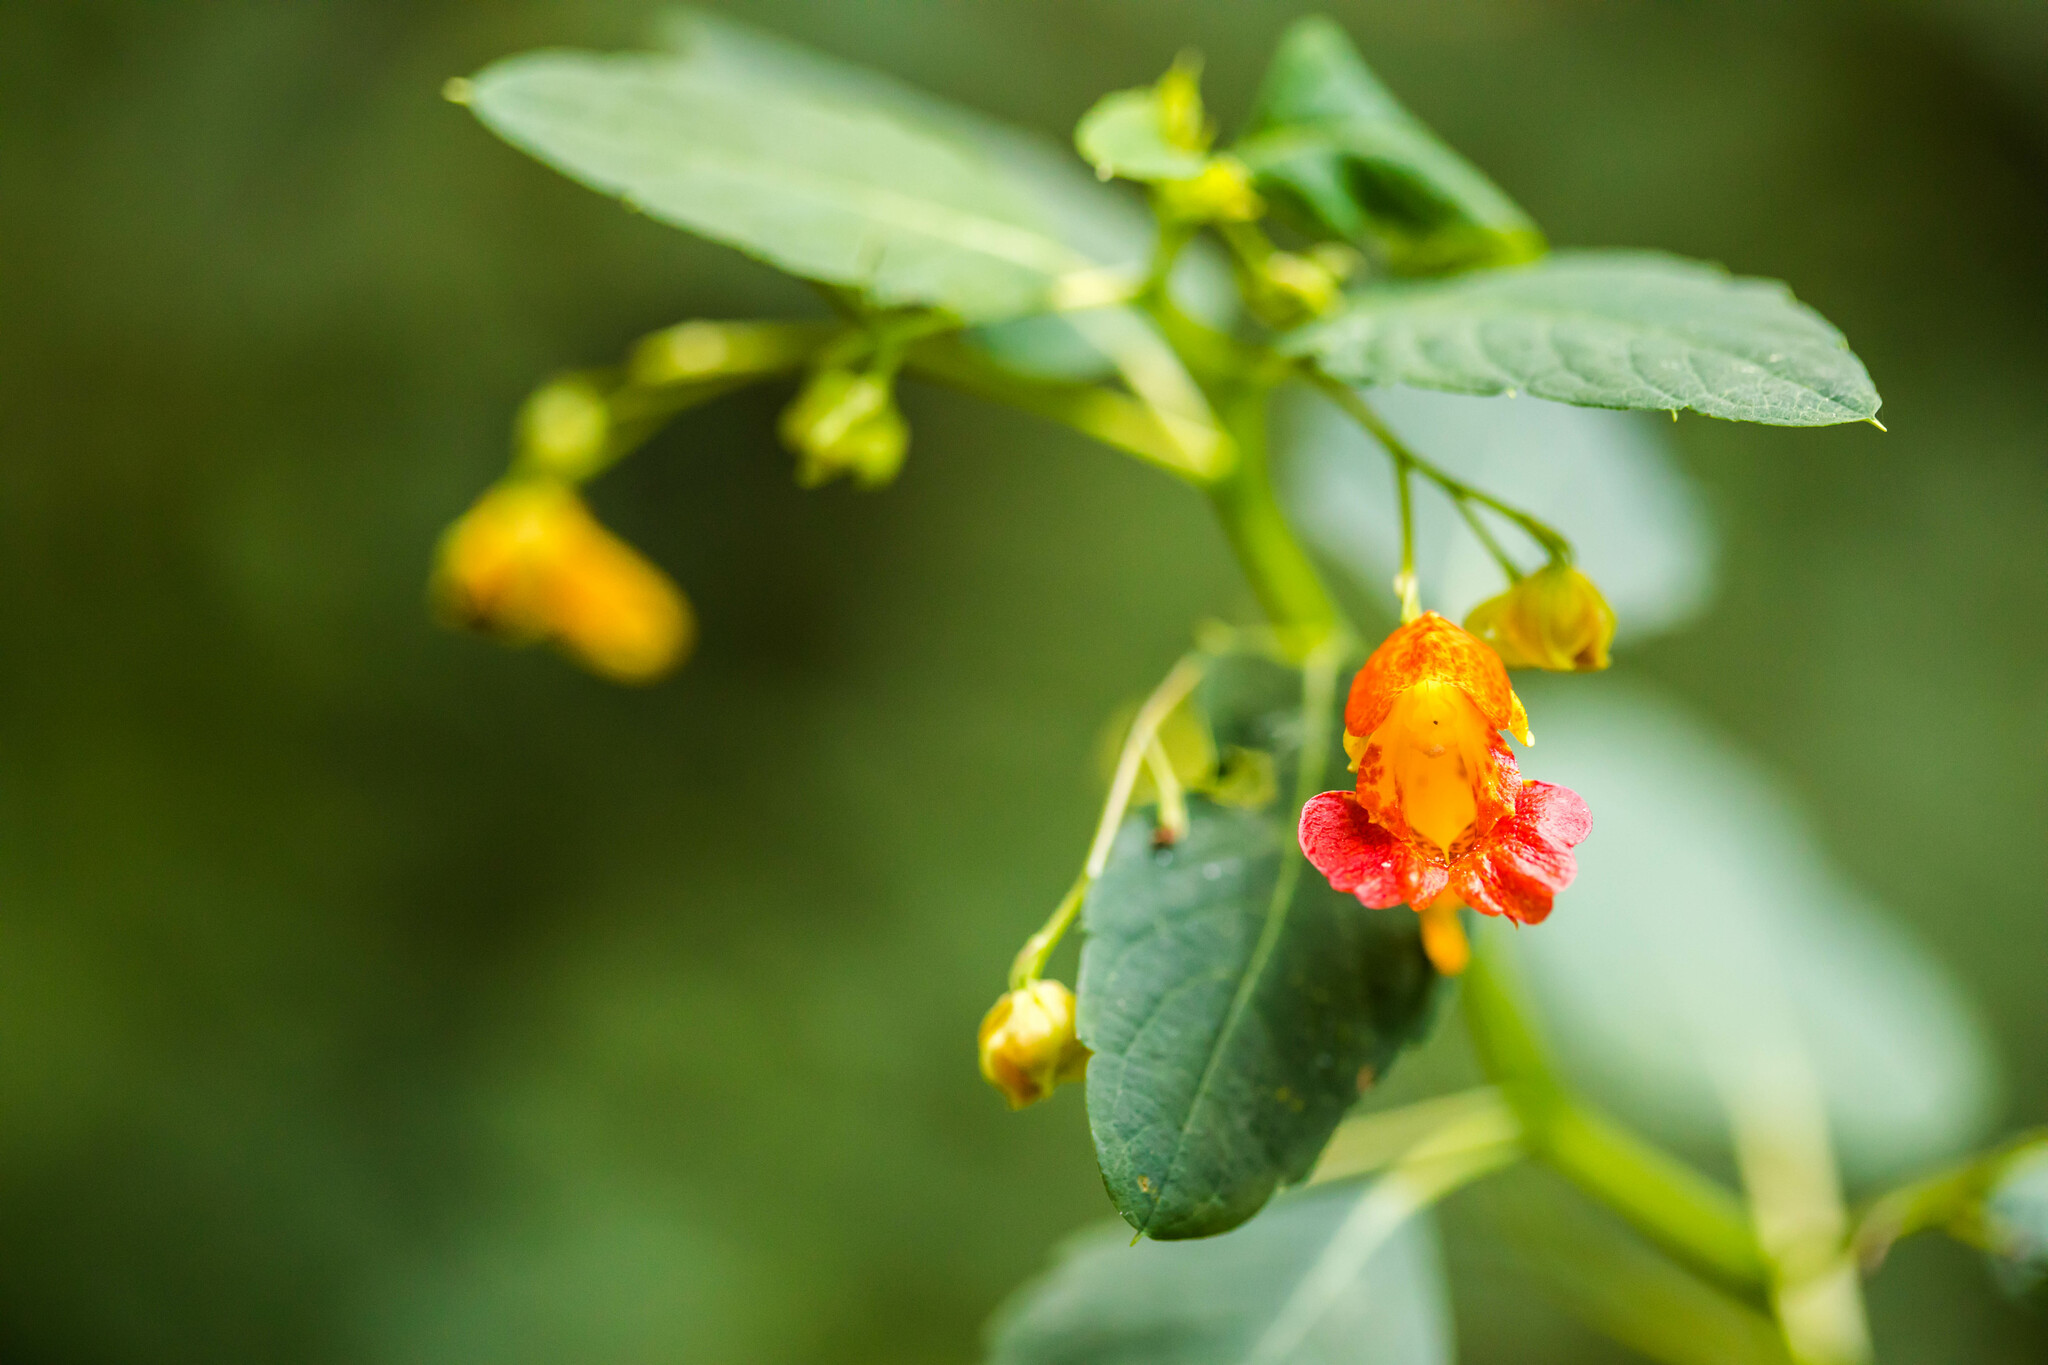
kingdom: Plantae
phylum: Tracheophyta
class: Magnoliopsida
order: Ericales
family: Balsaminaceae
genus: Impatiens
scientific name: Impatiens capensis
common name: Orange balsam
